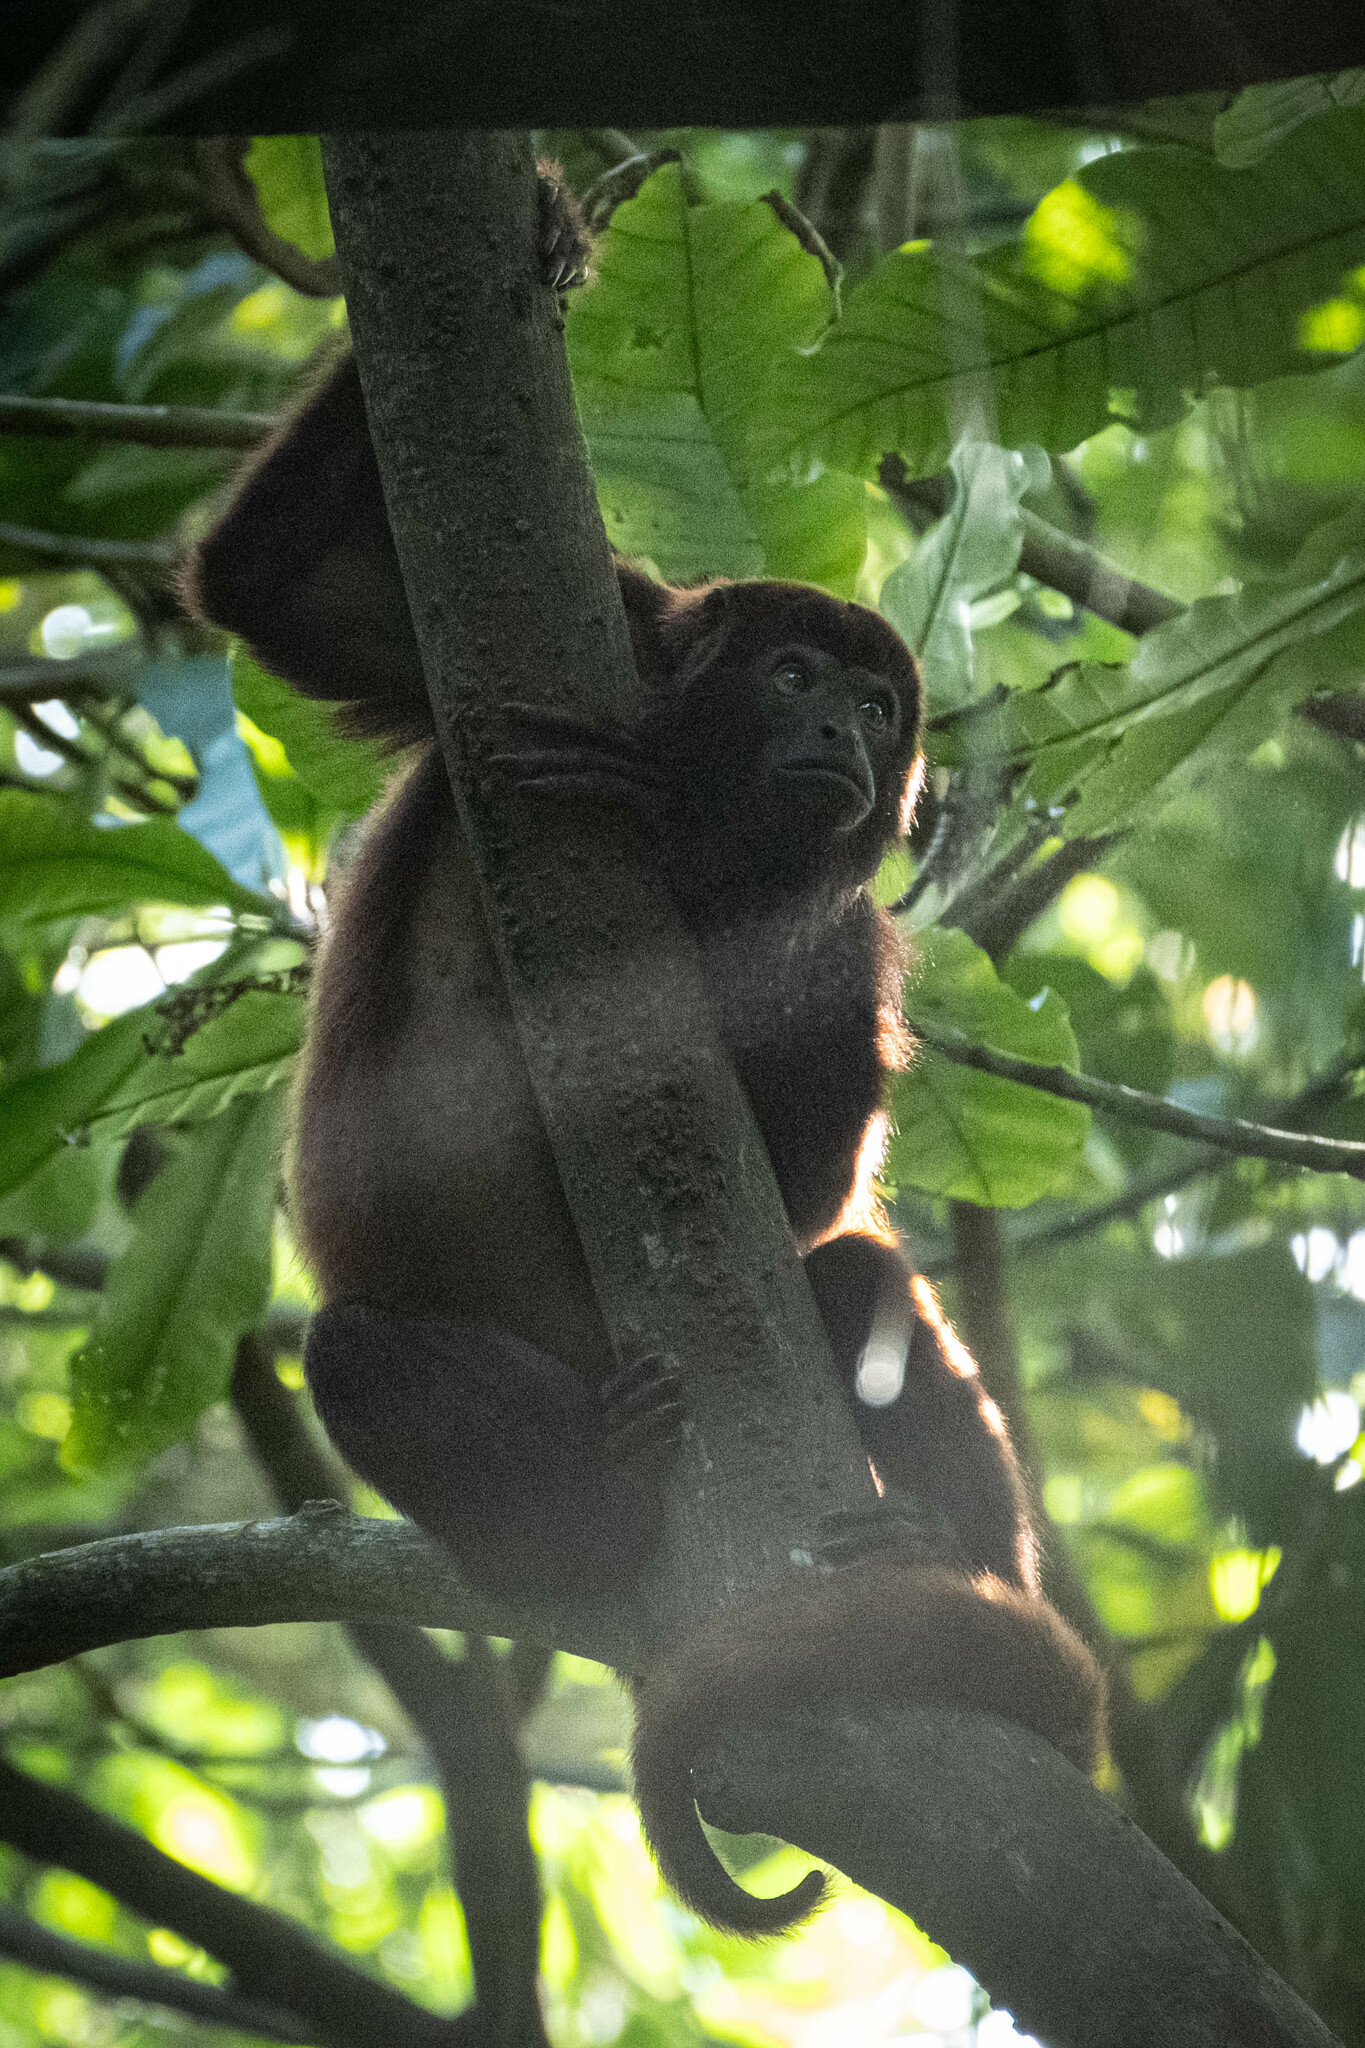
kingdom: Animalia
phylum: Chordata
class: Mammalia
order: Primates
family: Atelidae
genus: Alouatta
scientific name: Alouatta seniculus
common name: Venezuelan red howler
